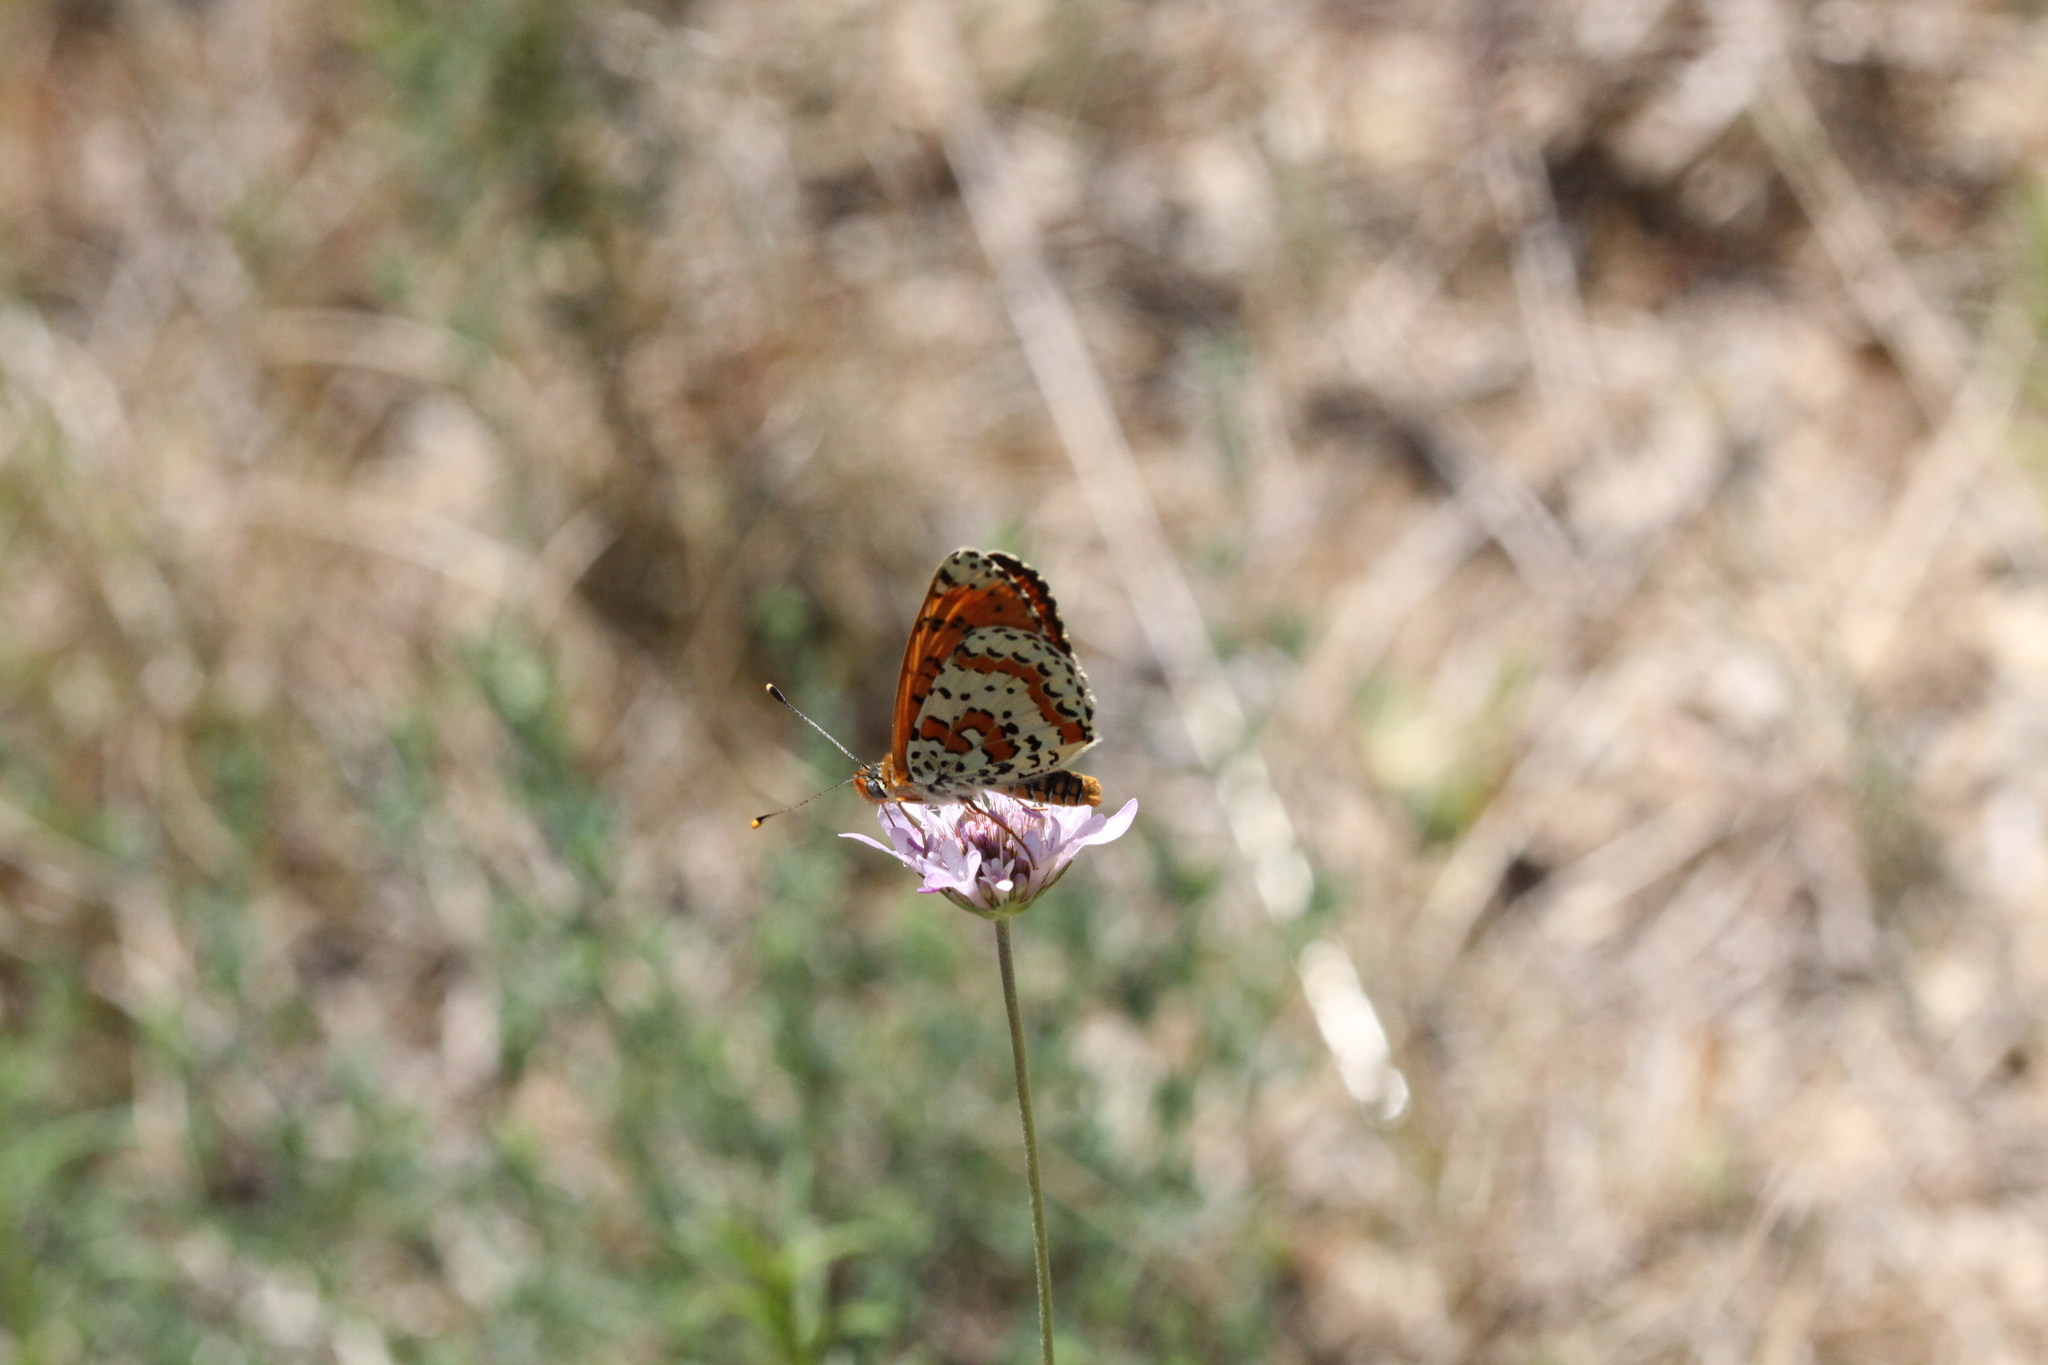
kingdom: Animalia
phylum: Arthropoda
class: Insecta
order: Lepidoptera
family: Nymphalidae
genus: Melitaea
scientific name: Melitaea didyma
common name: Spotted fritillary
